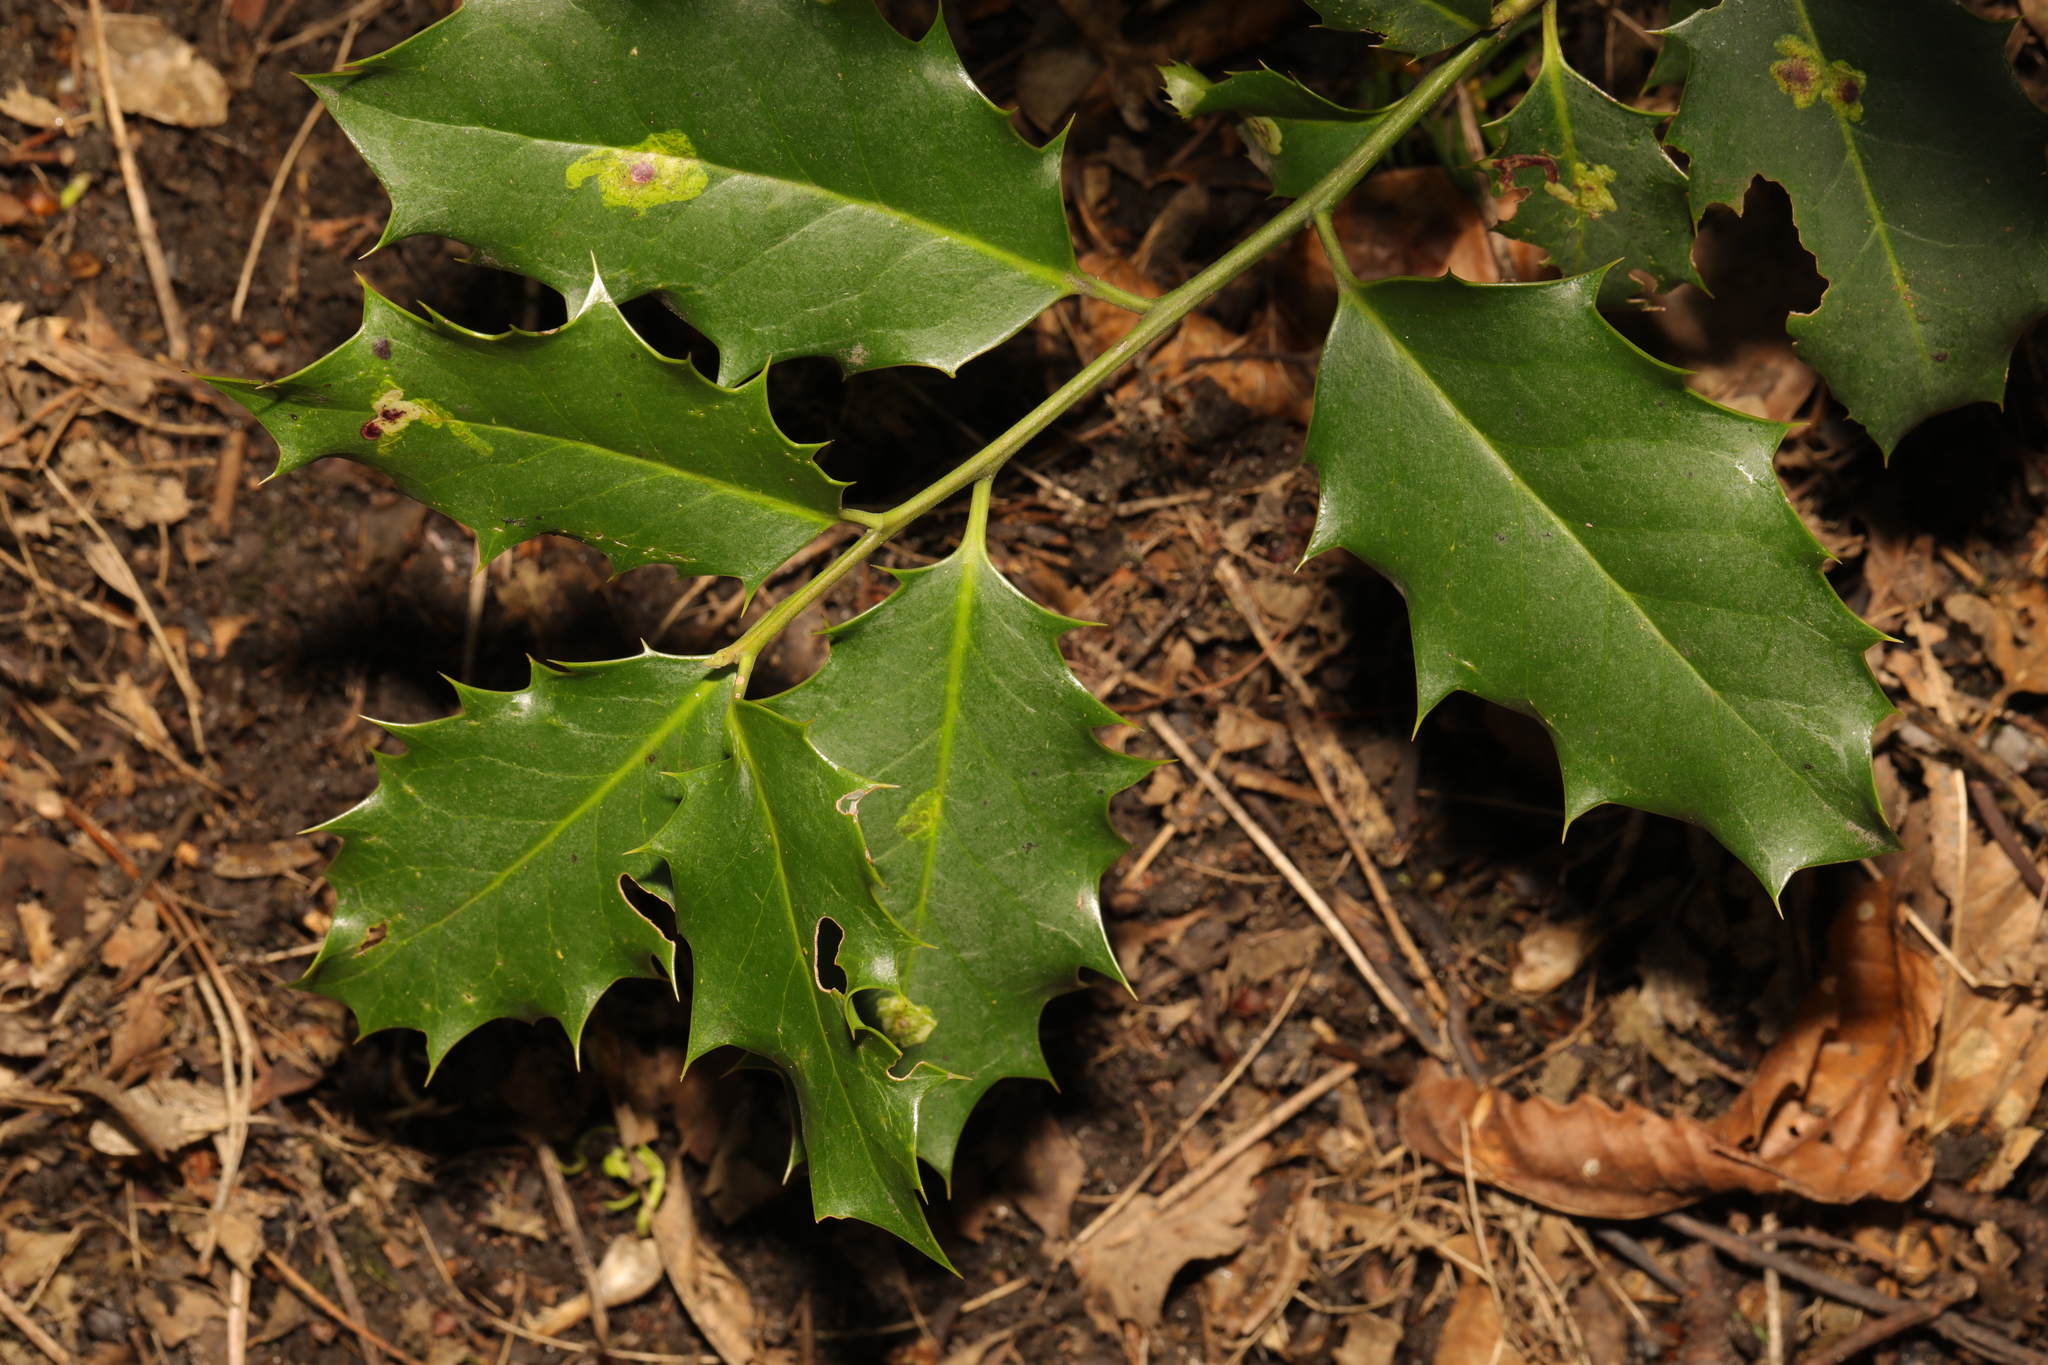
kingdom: Plantae
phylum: Tracheophyta
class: Magnoliopsida
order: Aquifoliales
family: Aquifoliaceae
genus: Ilex
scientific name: Ilex aquifolium
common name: English holly
